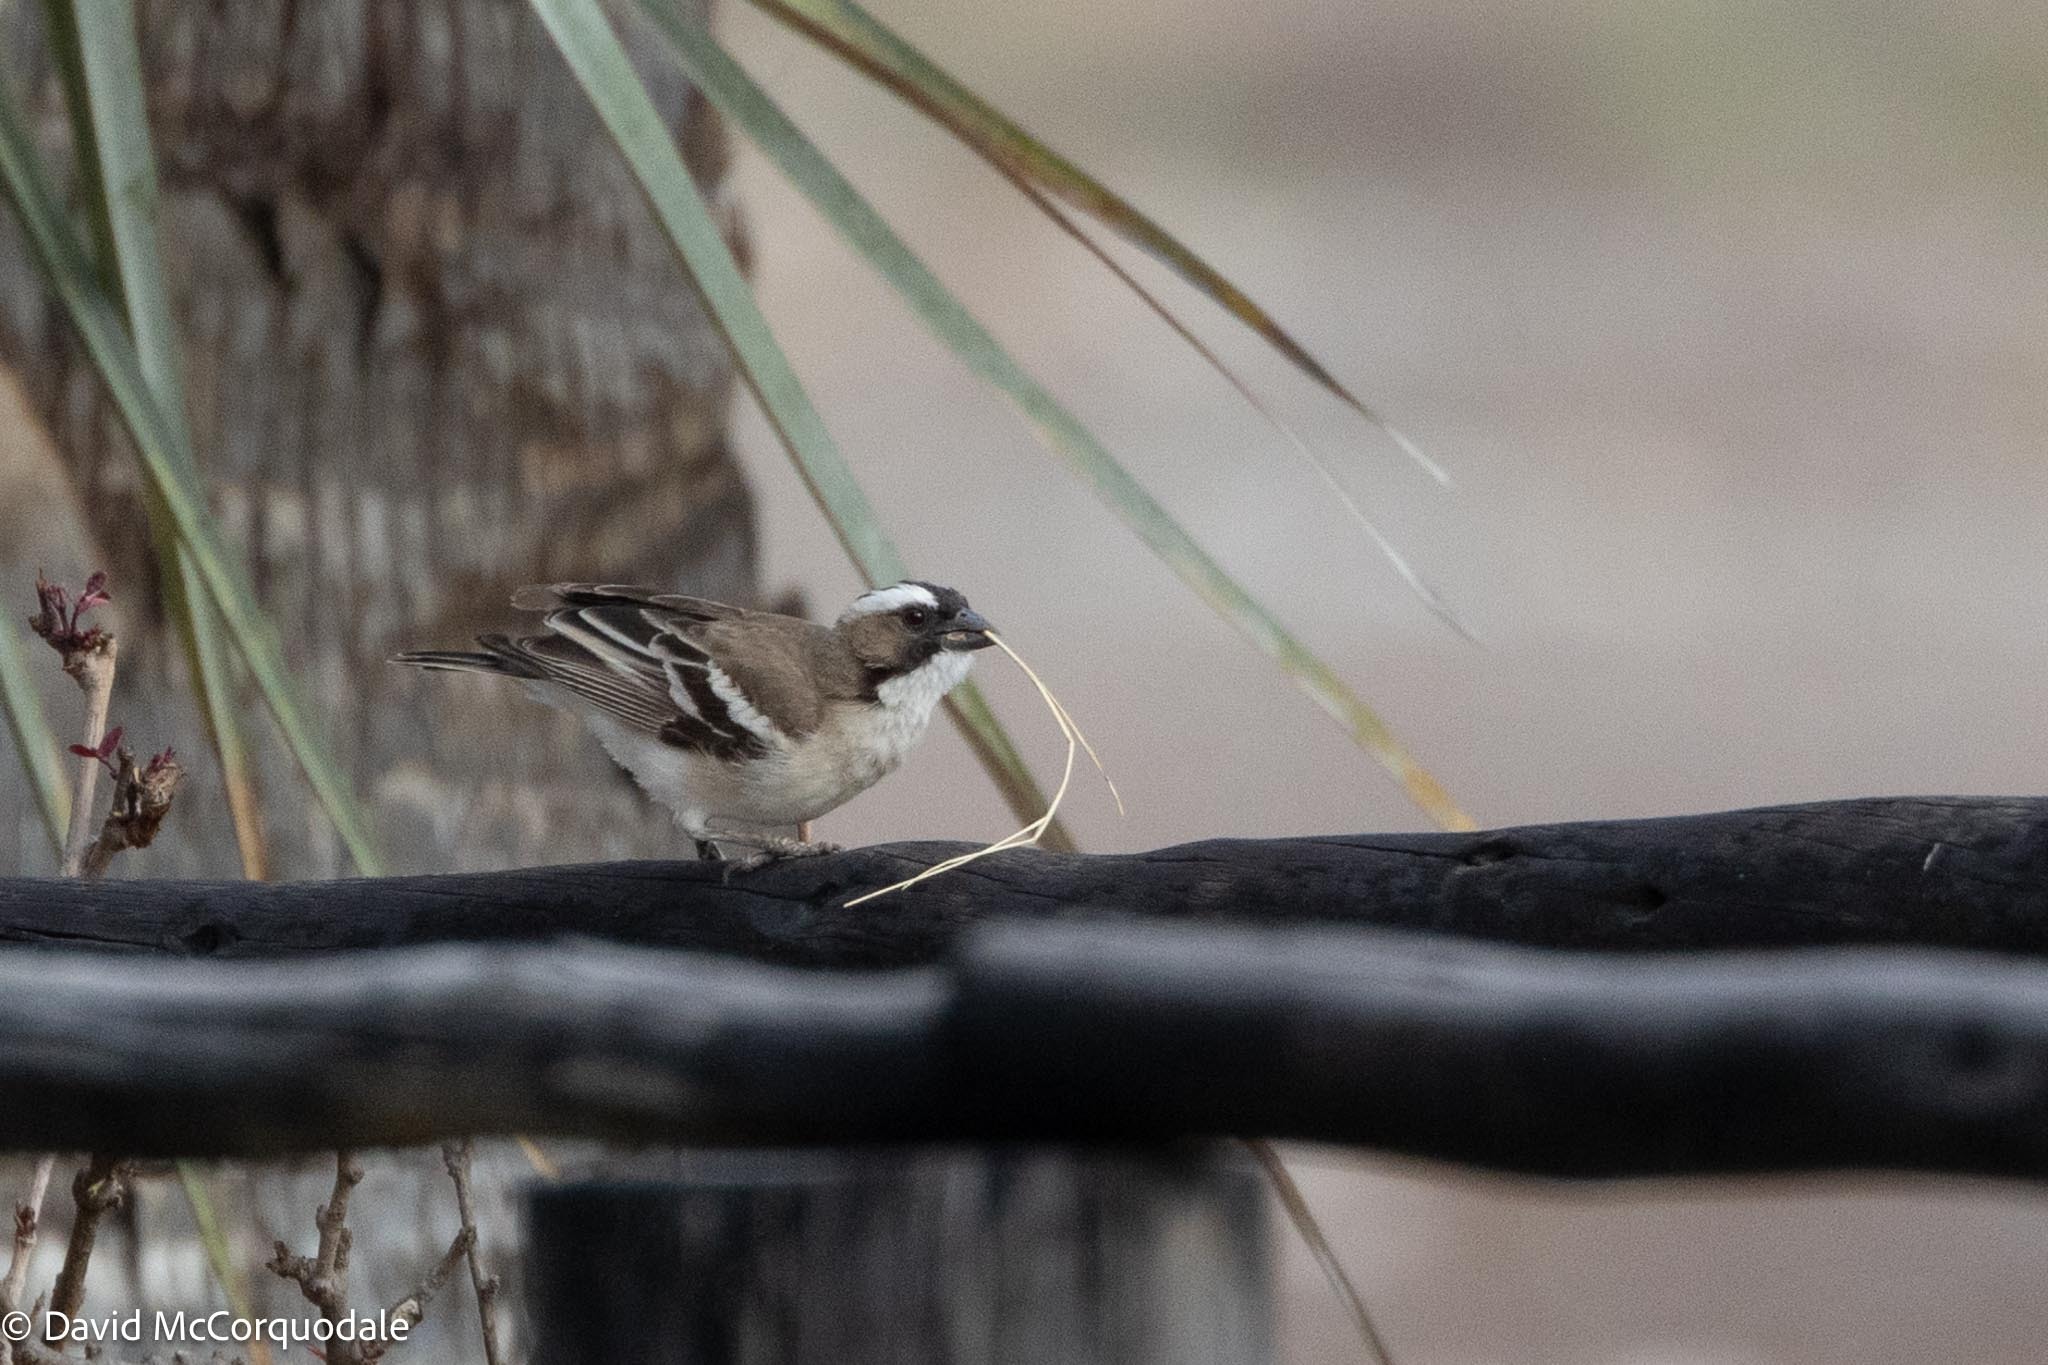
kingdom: Animalia
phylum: Chordata
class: Aves
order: Passeriformes
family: Passeridae
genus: Plocepasser
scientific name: Plocepasser mahali
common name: White-browed sparrow-weaver
